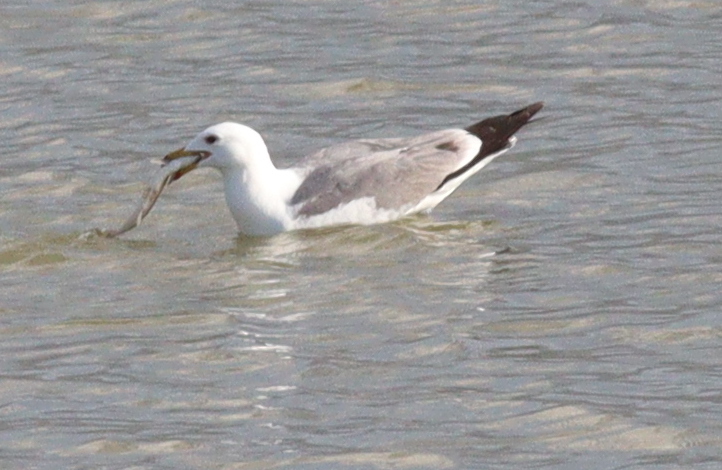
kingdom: Animalia
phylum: Chordata
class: Aves
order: Charadriiformes
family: Laridae
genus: Larus
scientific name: Larus armenicus
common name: Armenian gull
